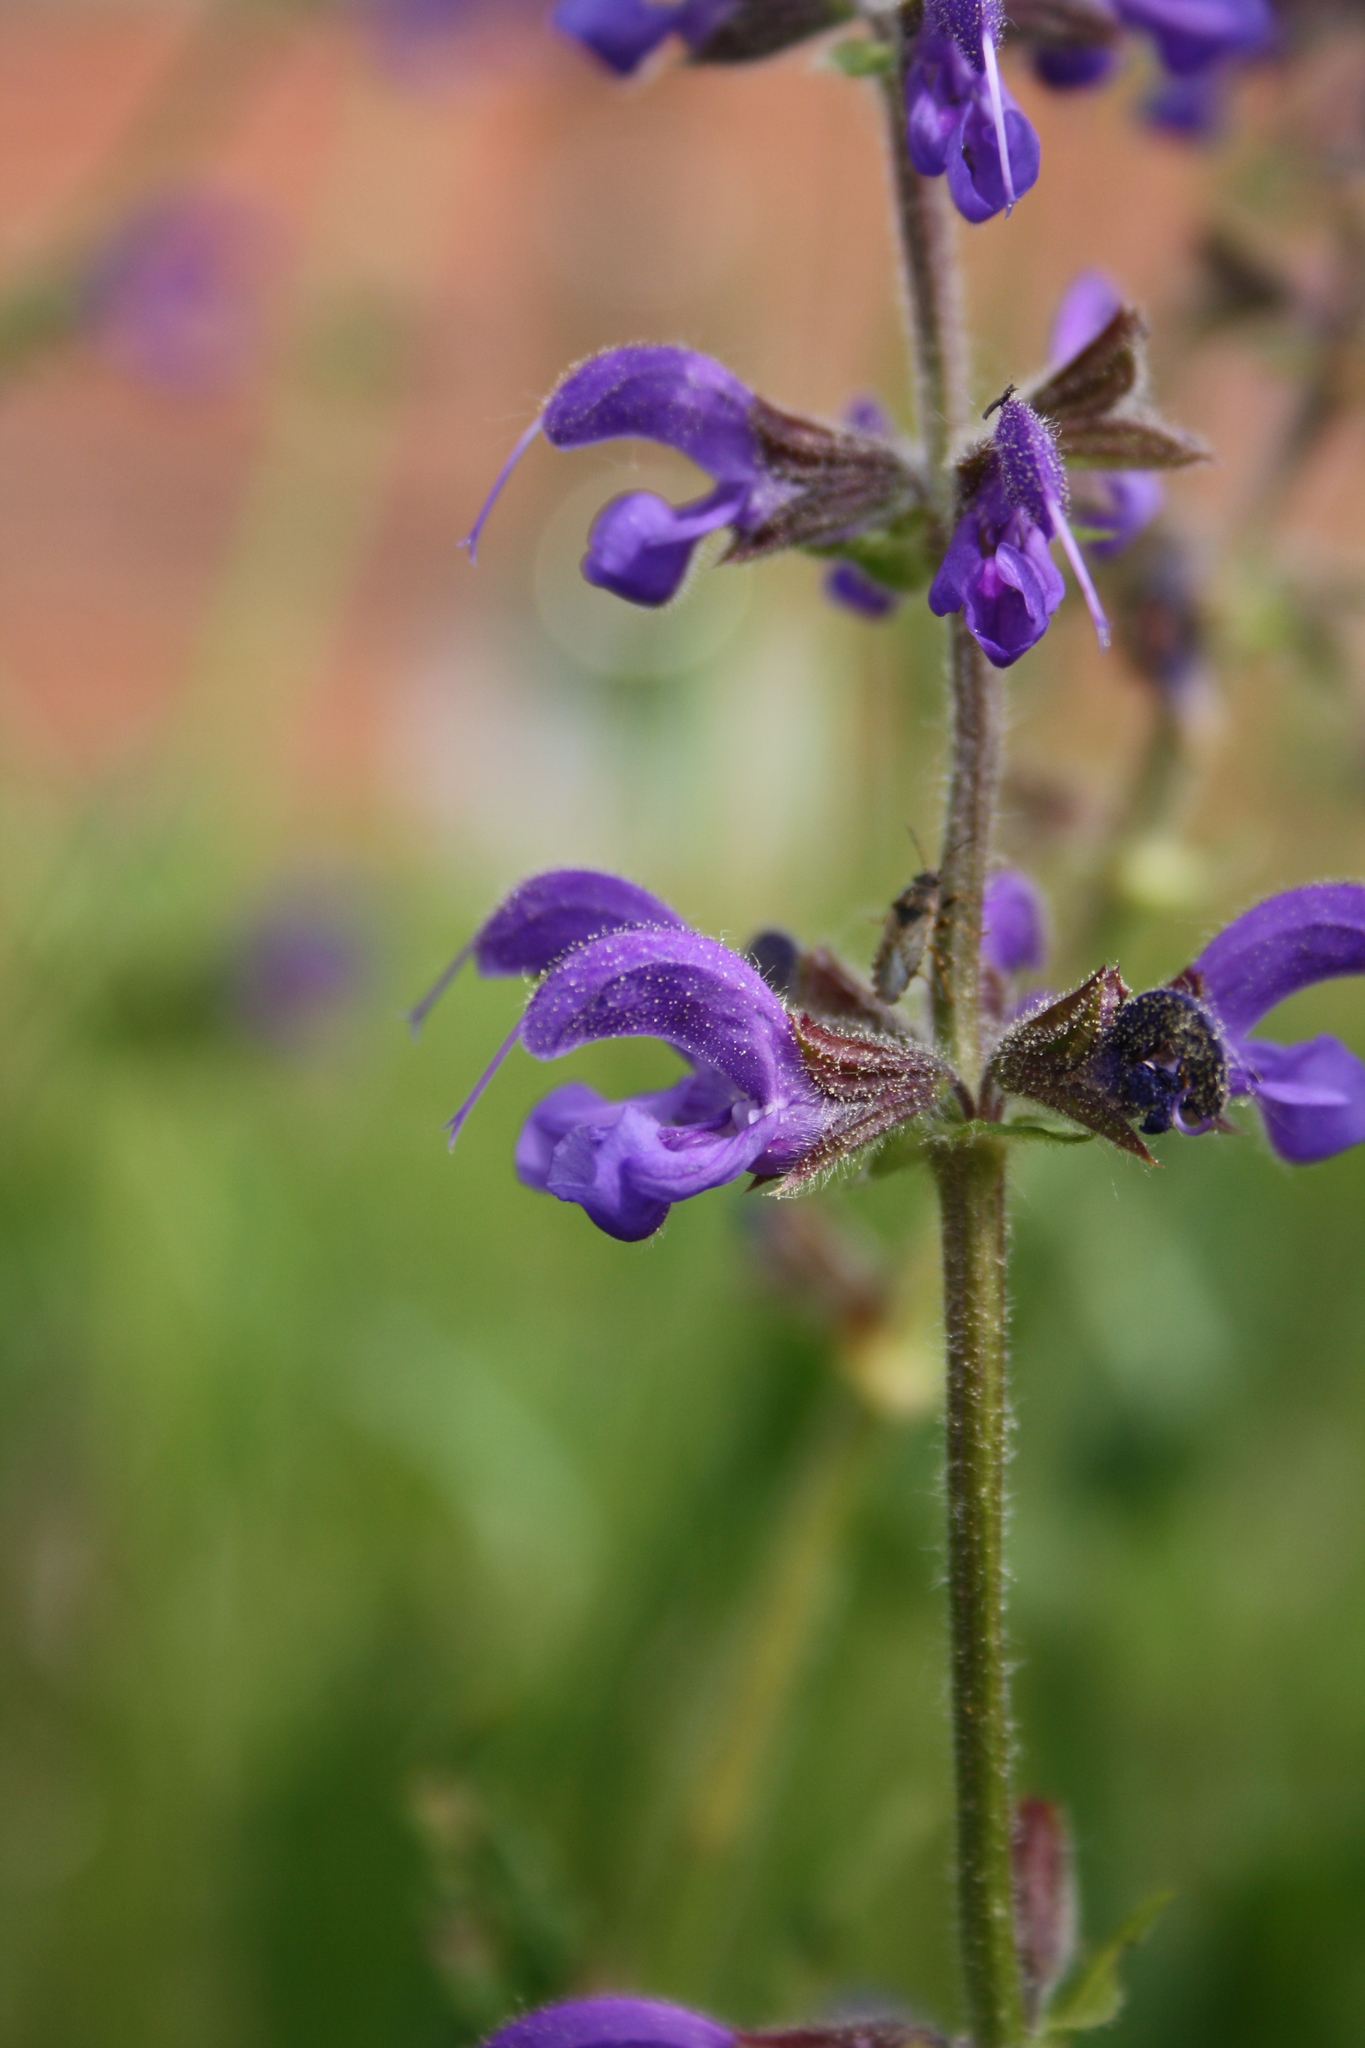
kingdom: Plantae
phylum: Tracheophyta
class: Magnoliopsida
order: Lamiales
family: Lamiaceae
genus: Salvia
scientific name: Salvia pratensis
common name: Meadow sage
